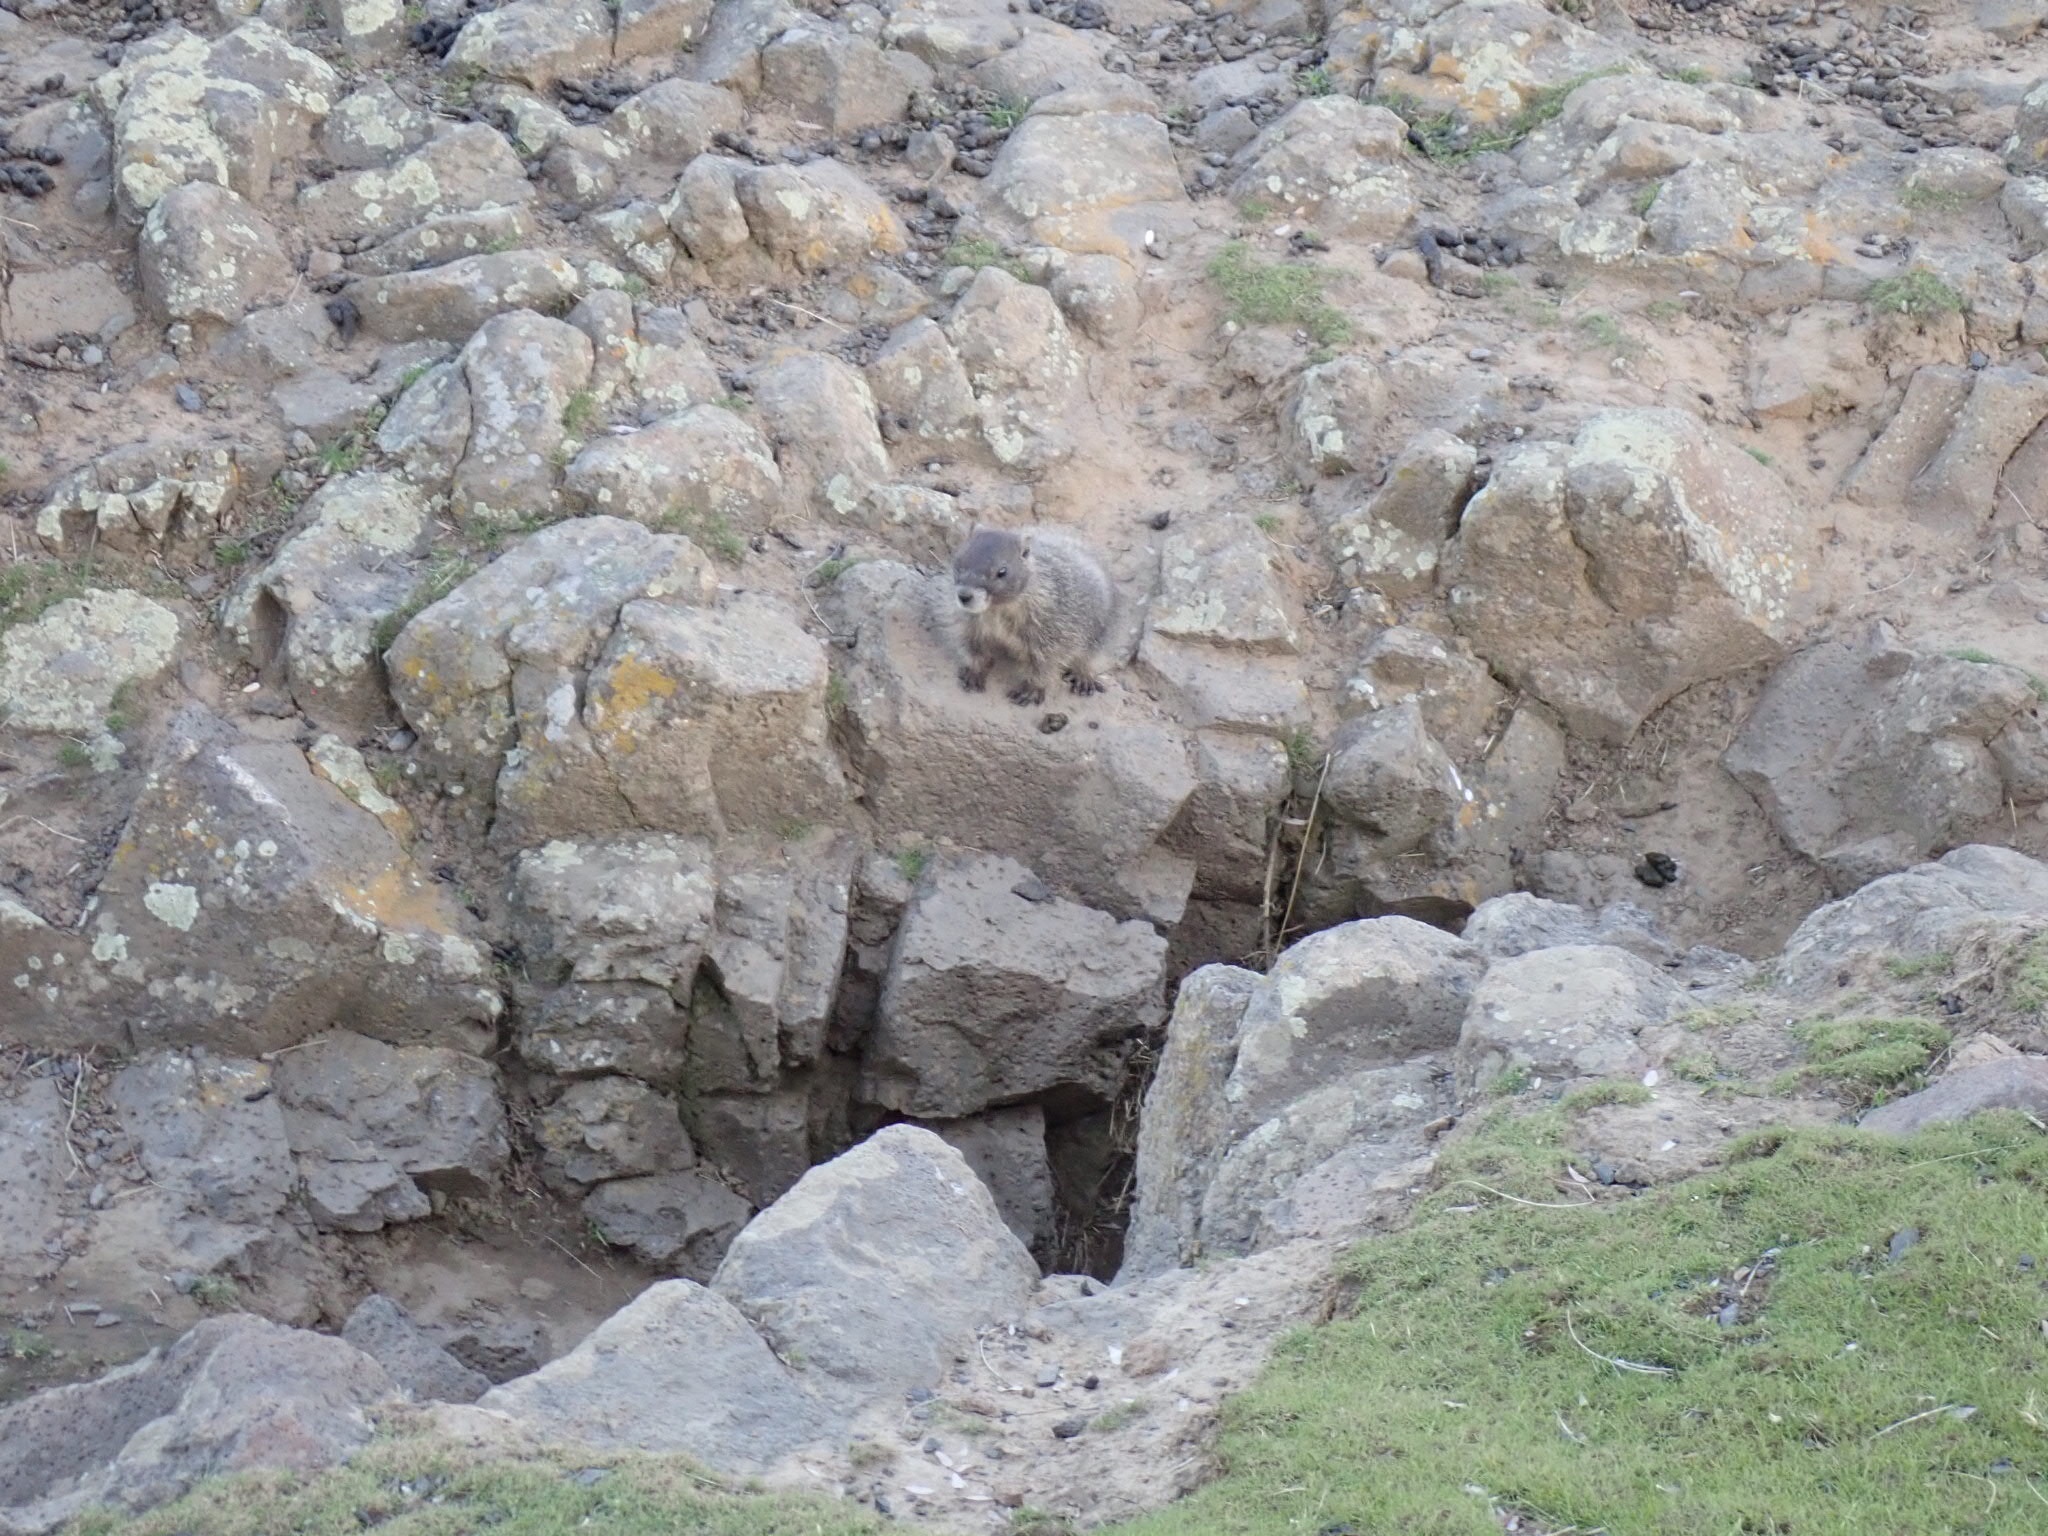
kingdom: Animalia
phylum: Chordata
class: Mammalia
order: Rodentia
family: Sciuridae
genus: Marmota
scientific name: Marmota flaviventris
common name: Yellow-bellied marmot
